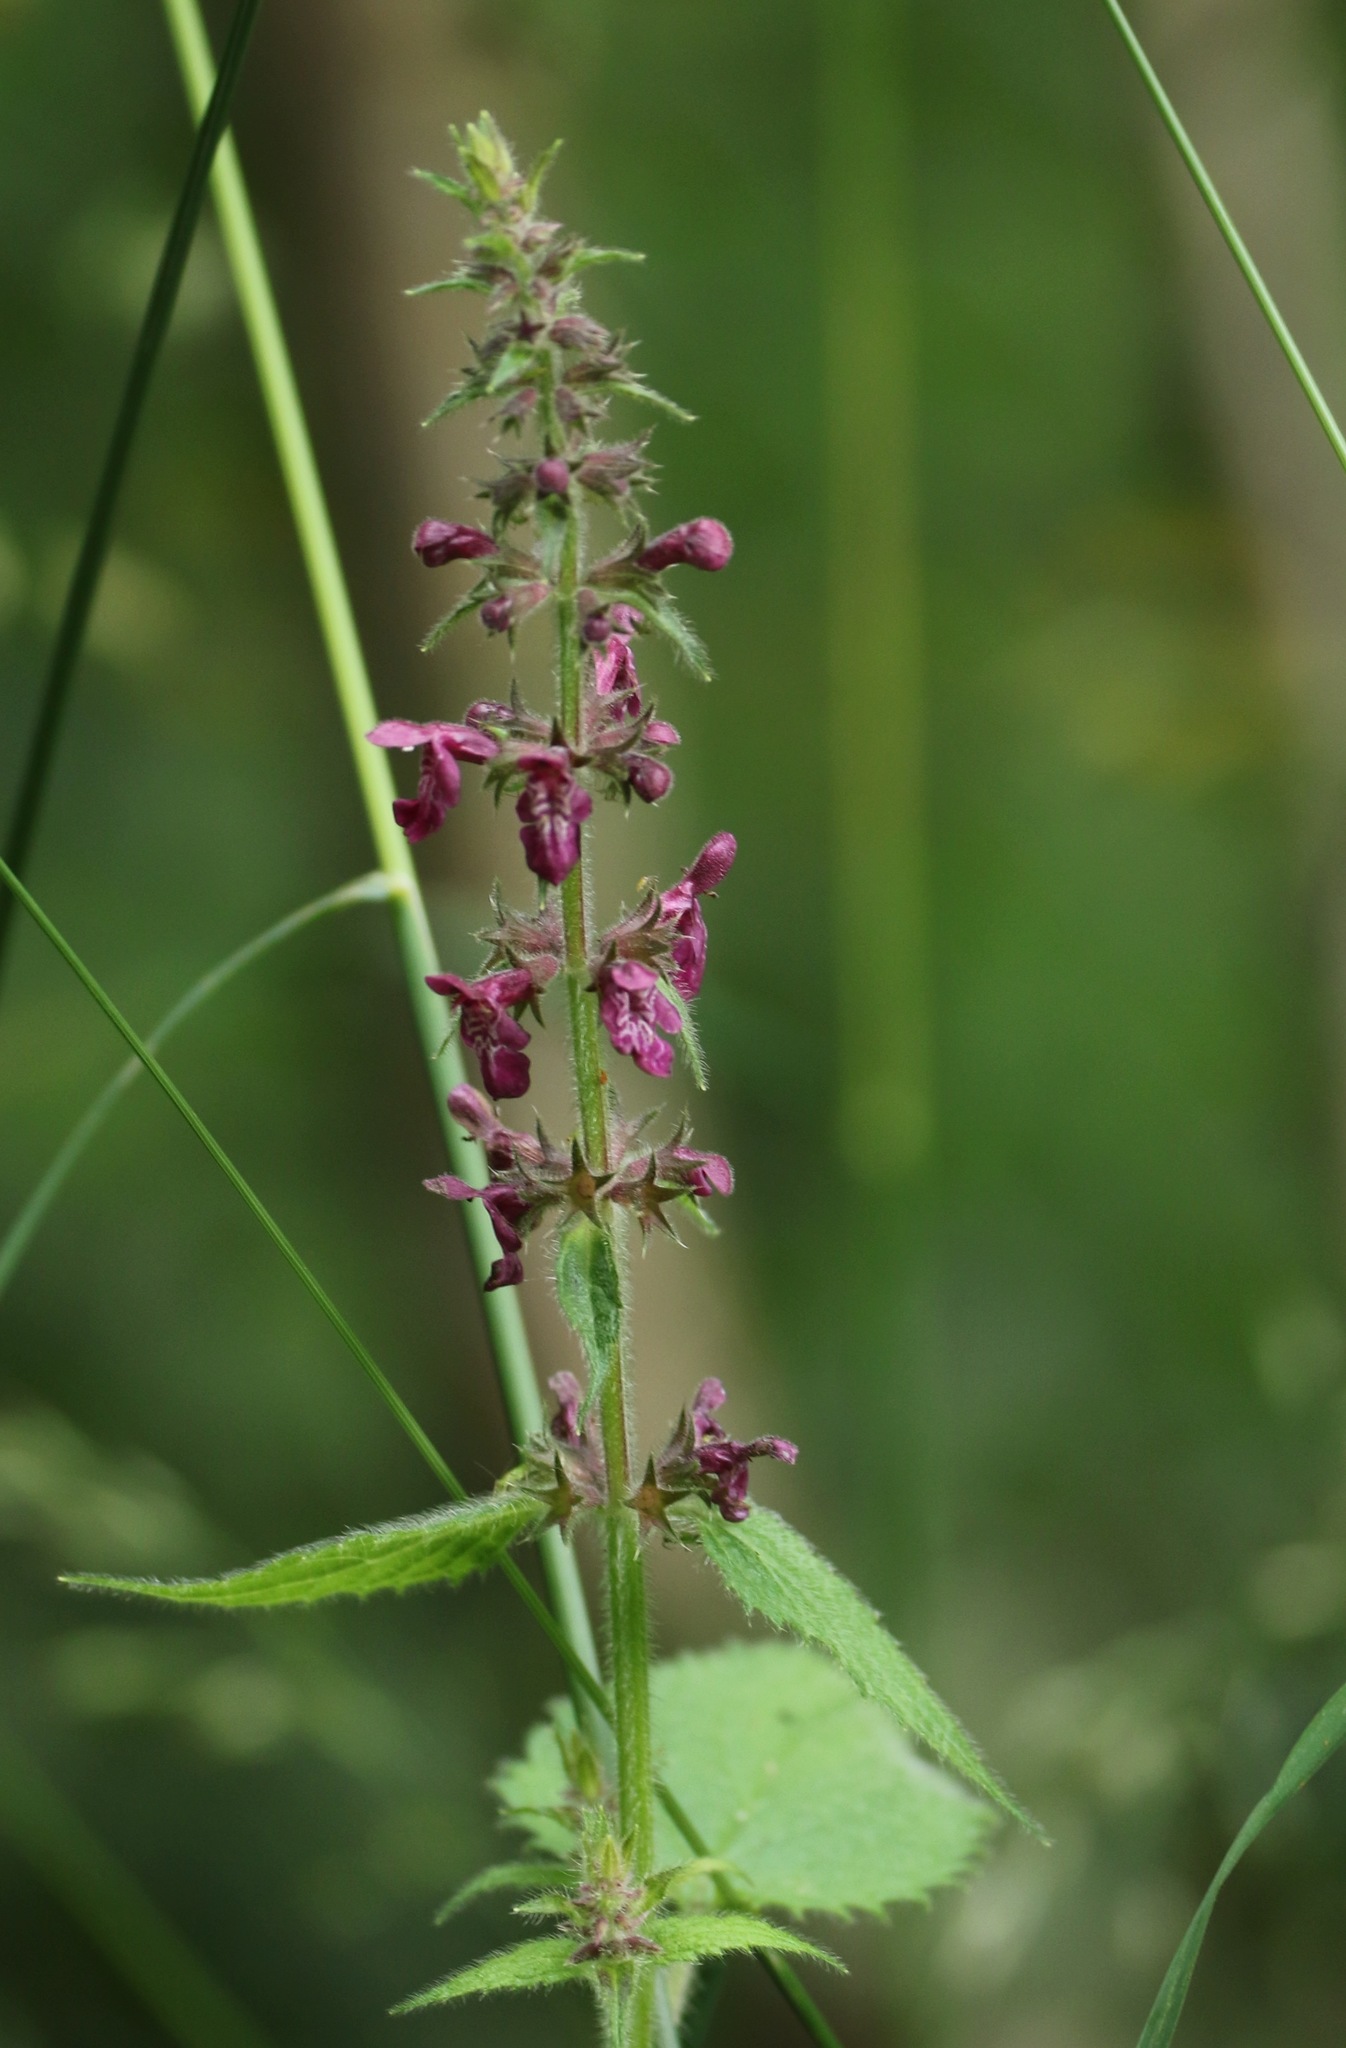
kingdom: Plantae
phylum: Tracheophyta
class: Magnoliopsida
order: Lamiales
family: Lamiaceae
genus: Stachys
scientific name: Stachys sylvatica
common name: Hedge woundwort
